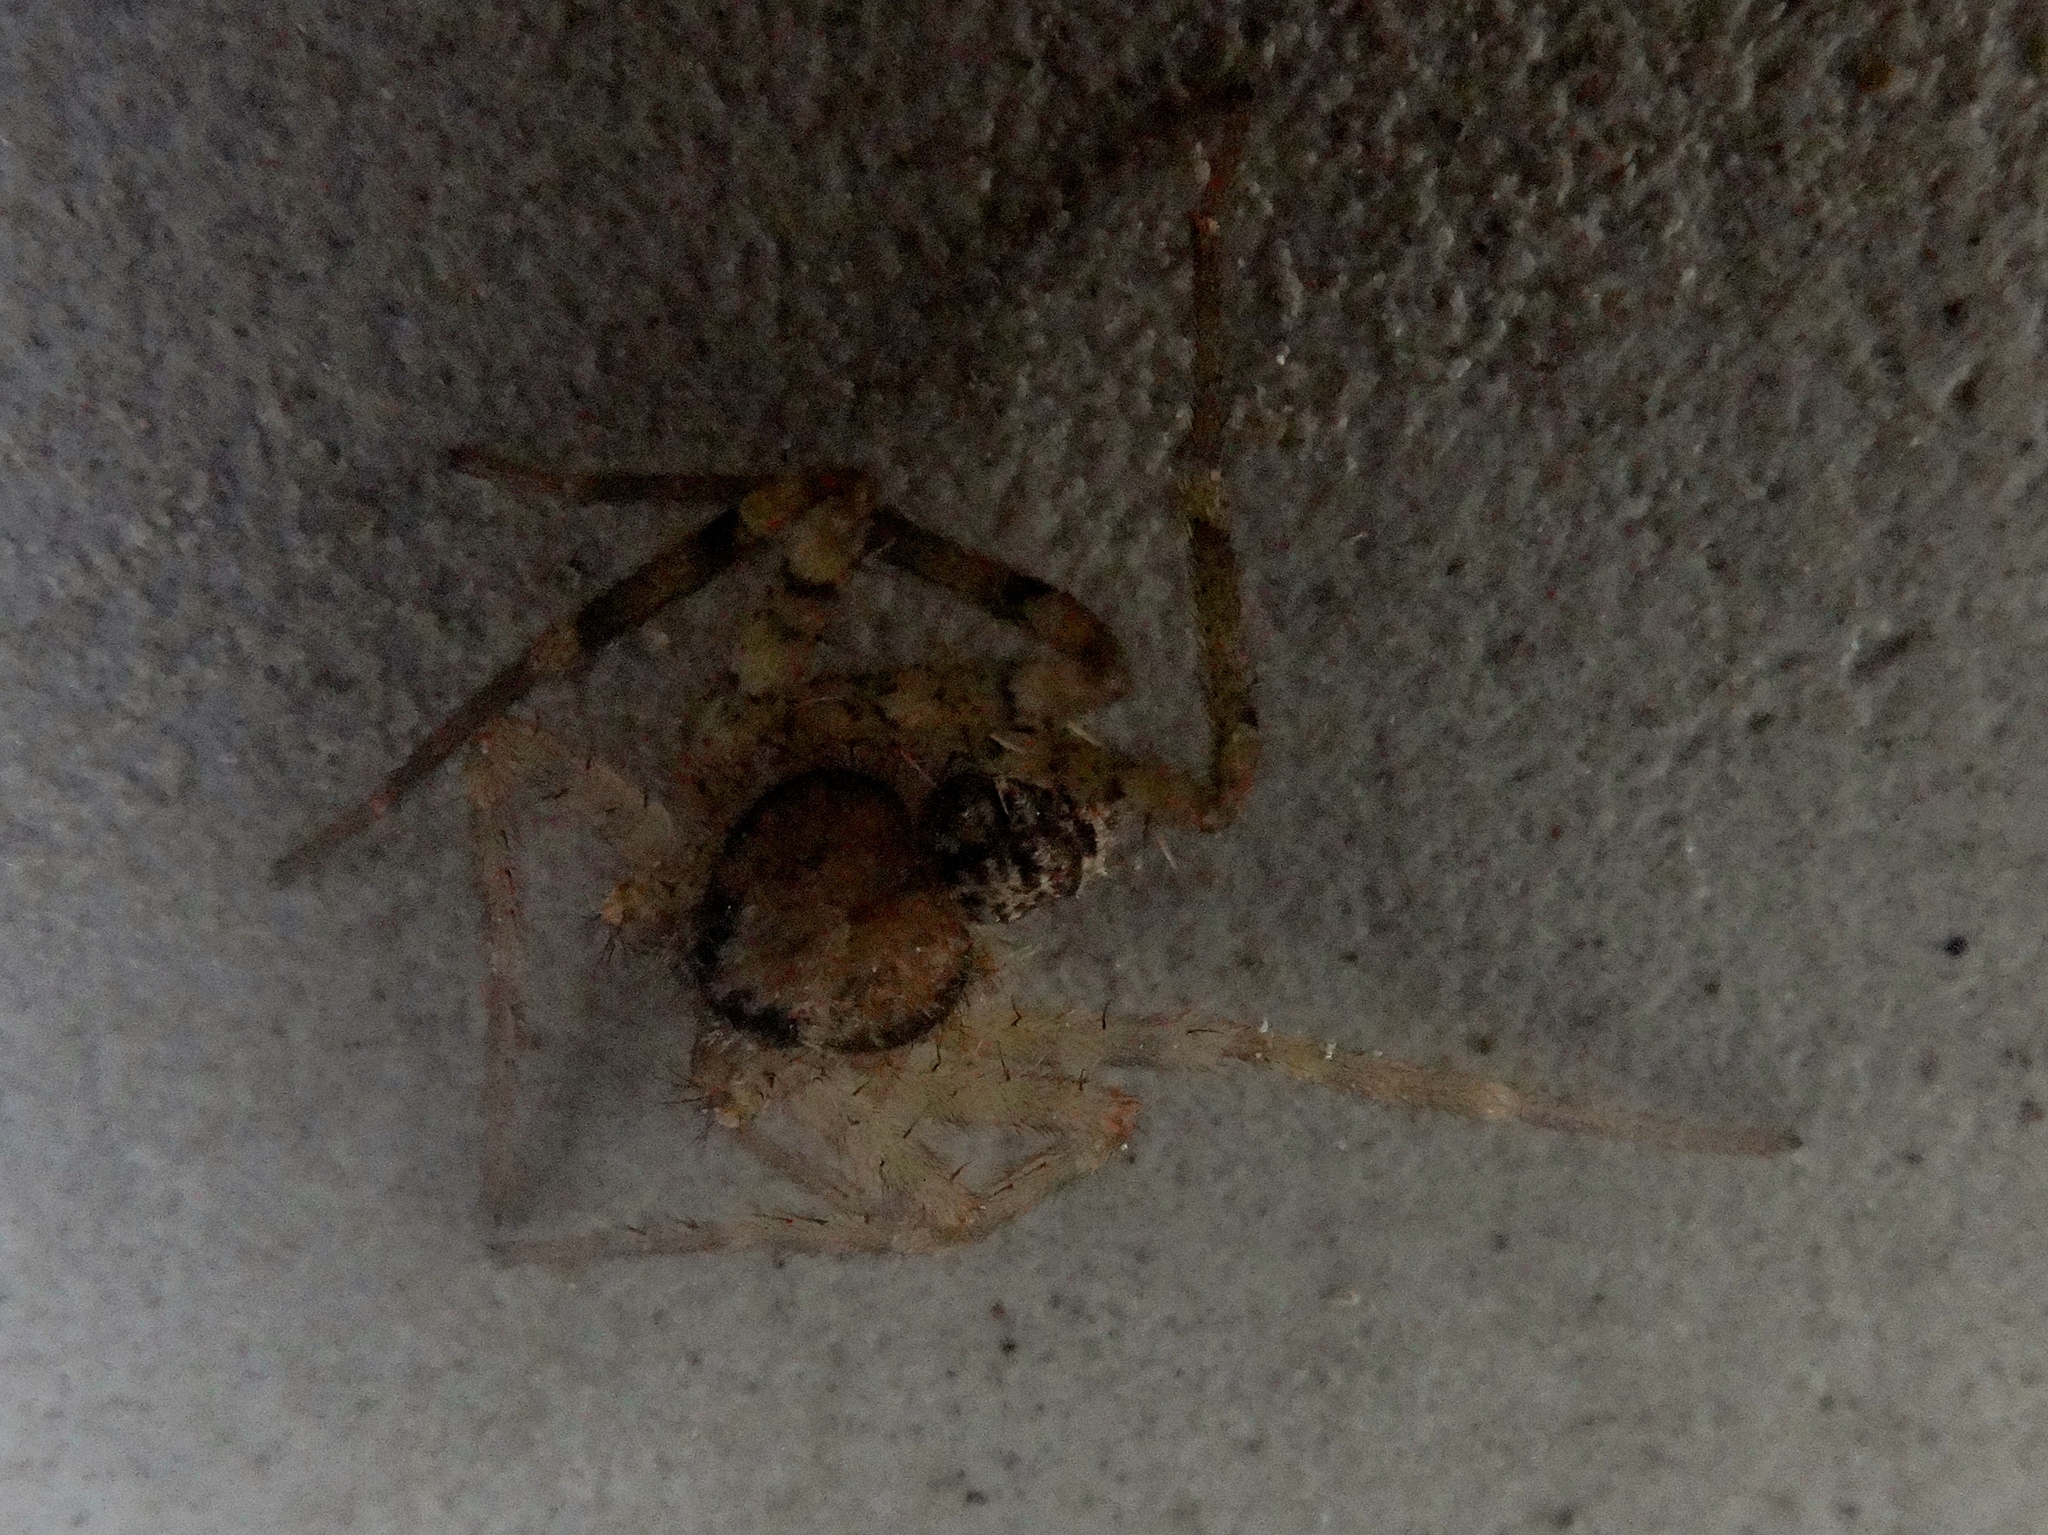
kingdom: Animalia
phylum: Arthropoda
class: Arachnida
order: Araneae
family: Selenopidae
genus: Selenops
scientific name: Selenops
